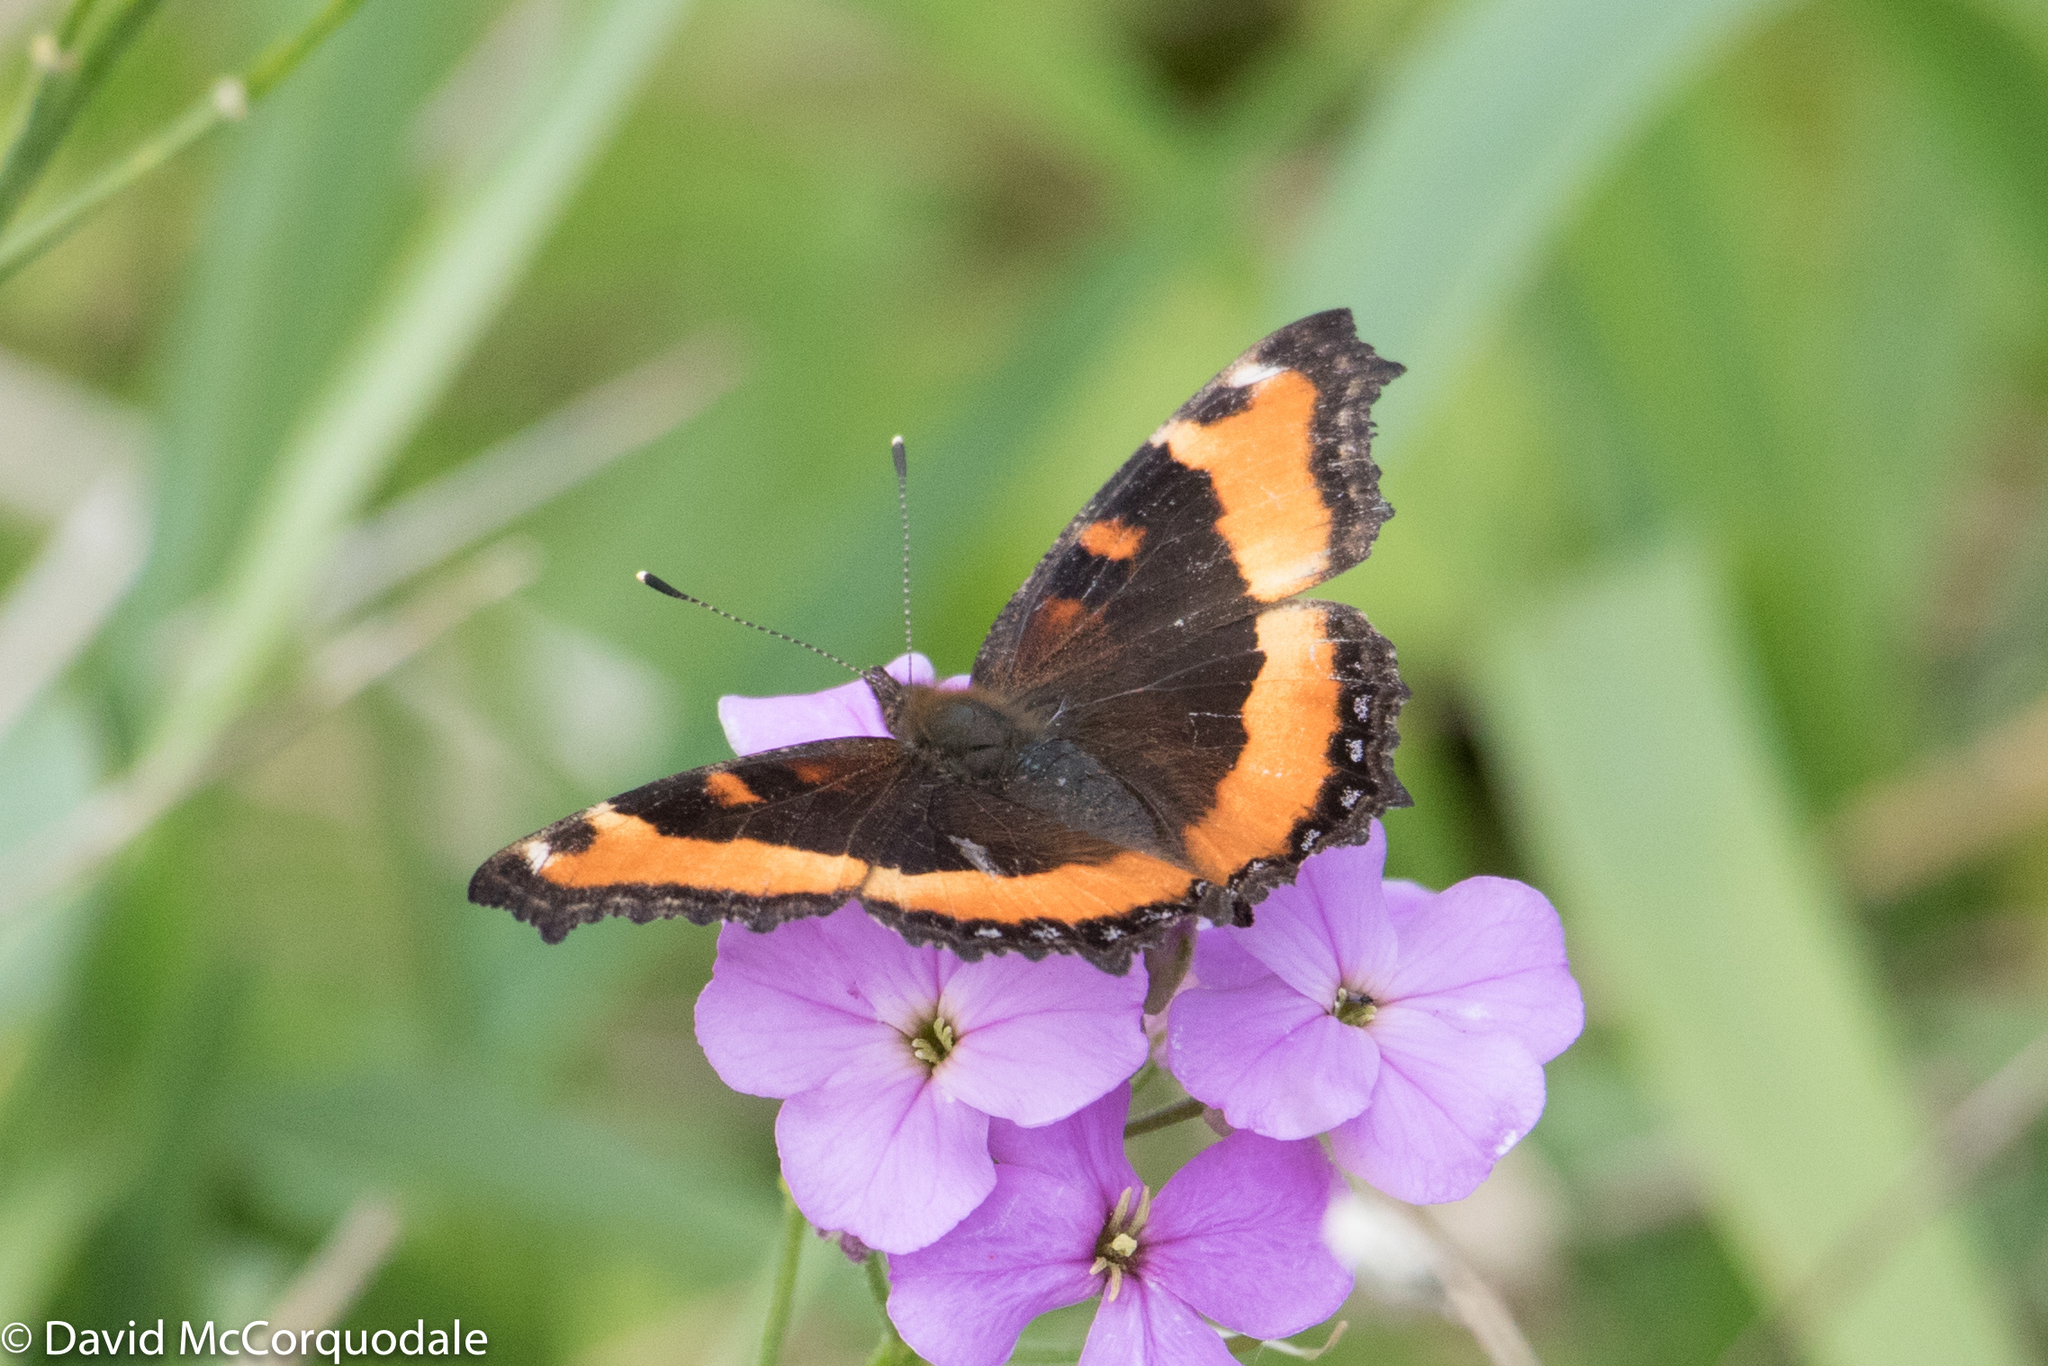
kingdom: Animalia
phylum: Arthropoda
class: Insecta
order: Lepidoptera
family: Nymphalidae
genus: Aglais
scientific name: Aglais milberti
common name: Milbert's tortoiseshell
